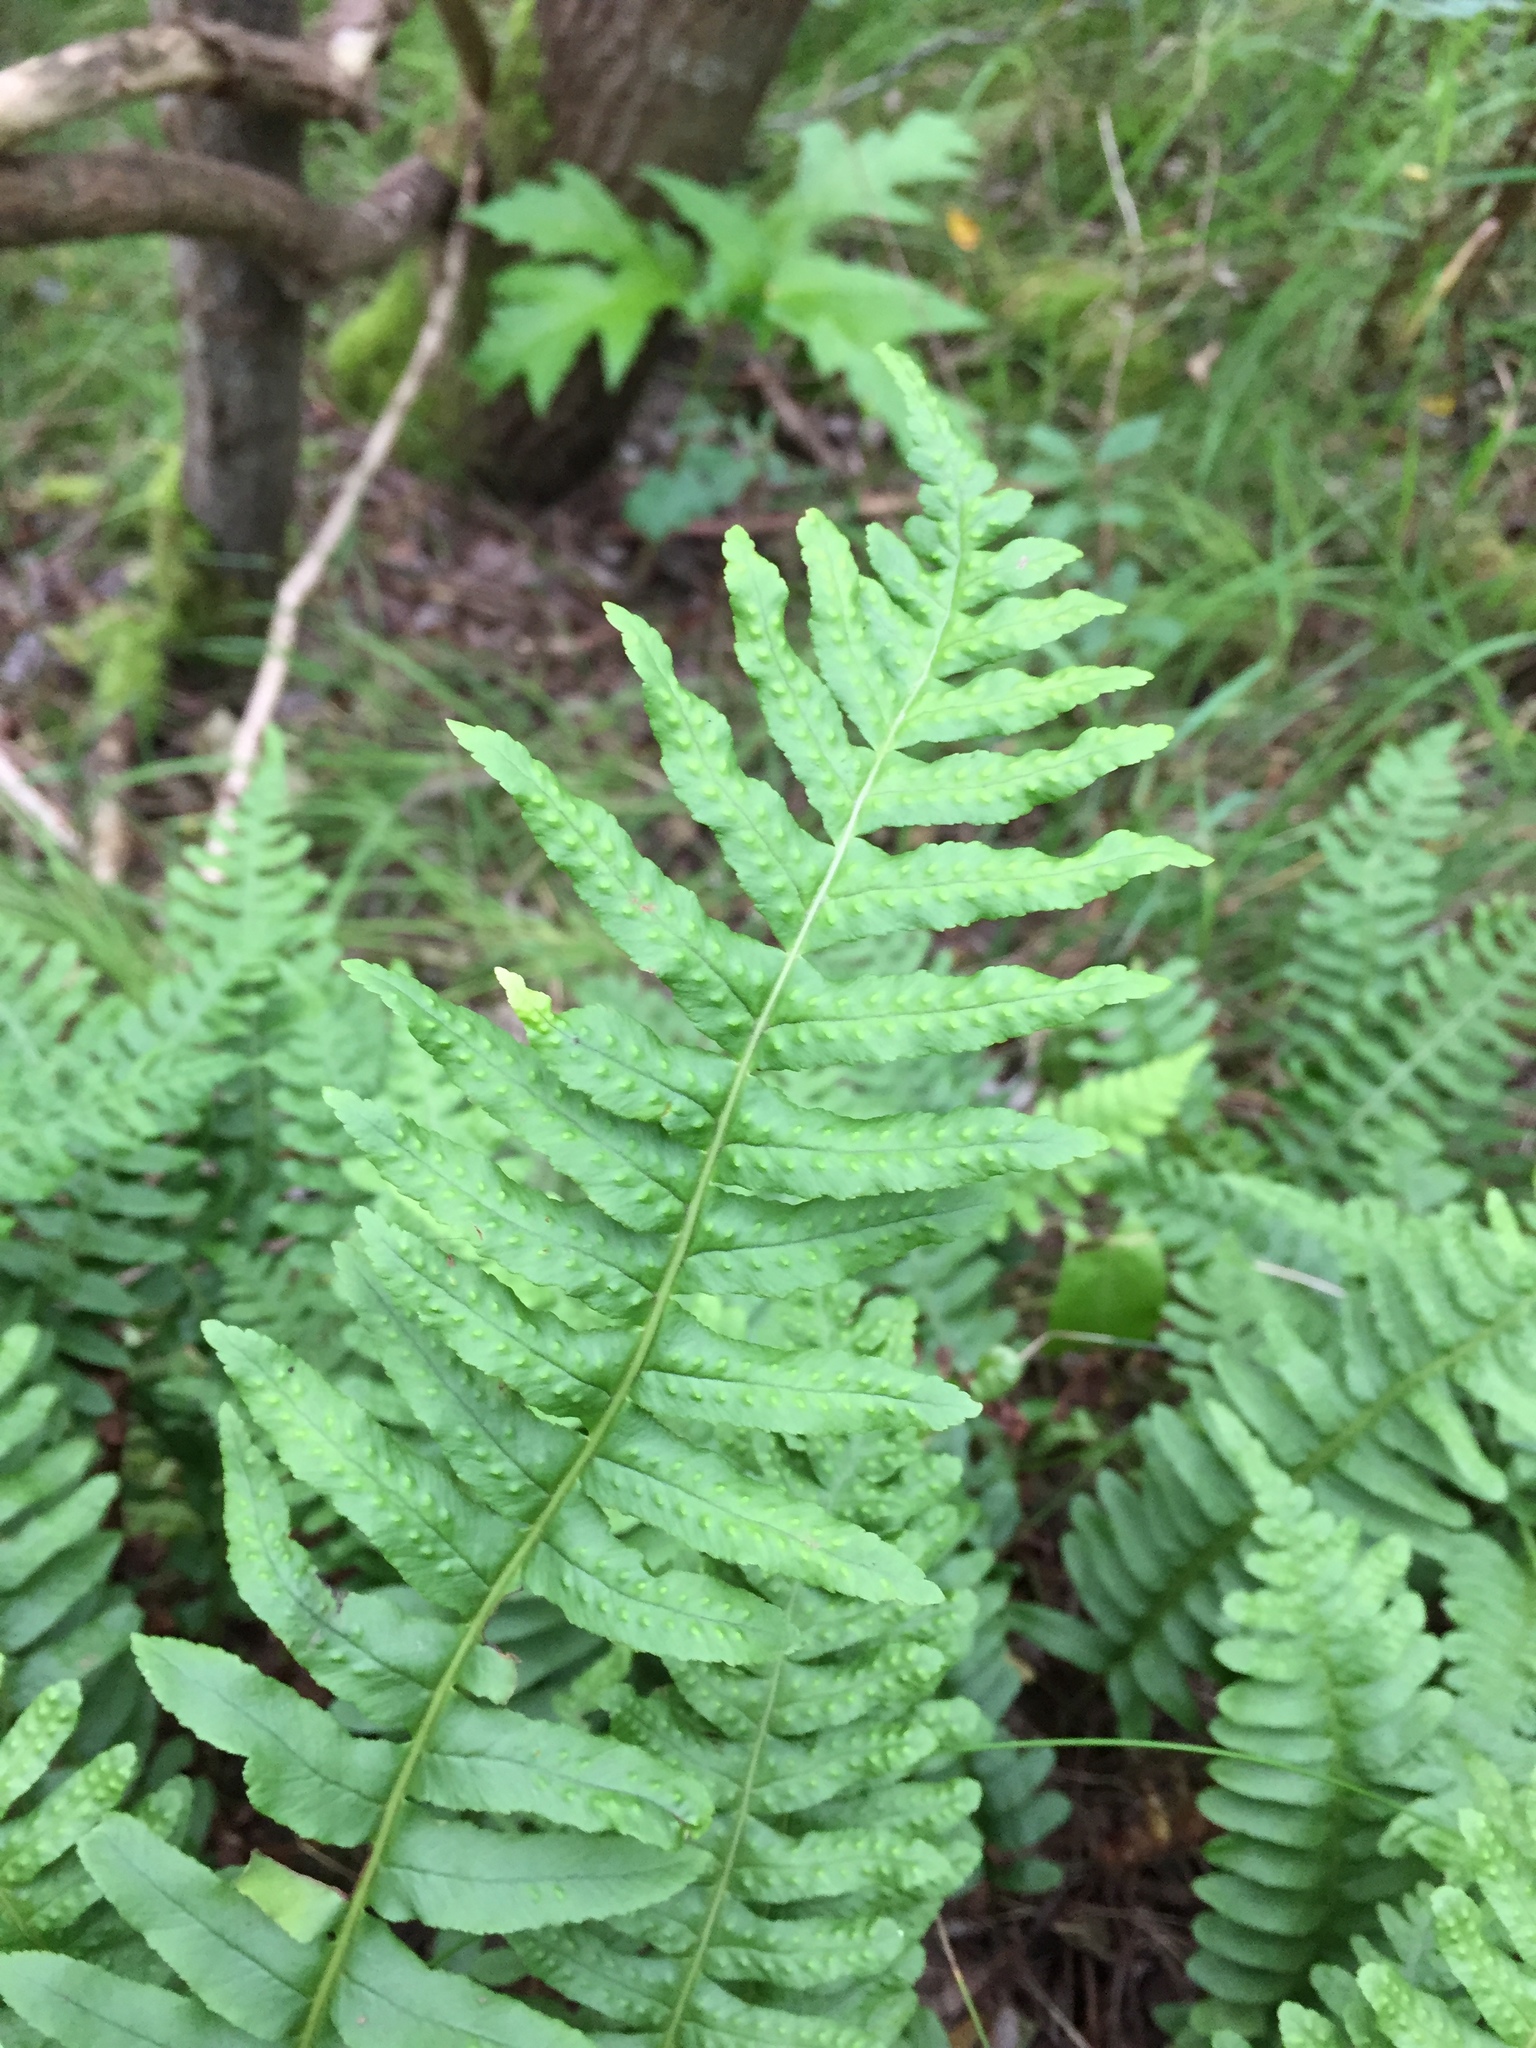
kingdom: Plantae
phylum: Tracheophyta
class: Polypodiopsida
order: Polypodiales
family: Polypodiaceae
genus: Polypodium
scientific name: Polypodium vulgare
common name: Common polypody
